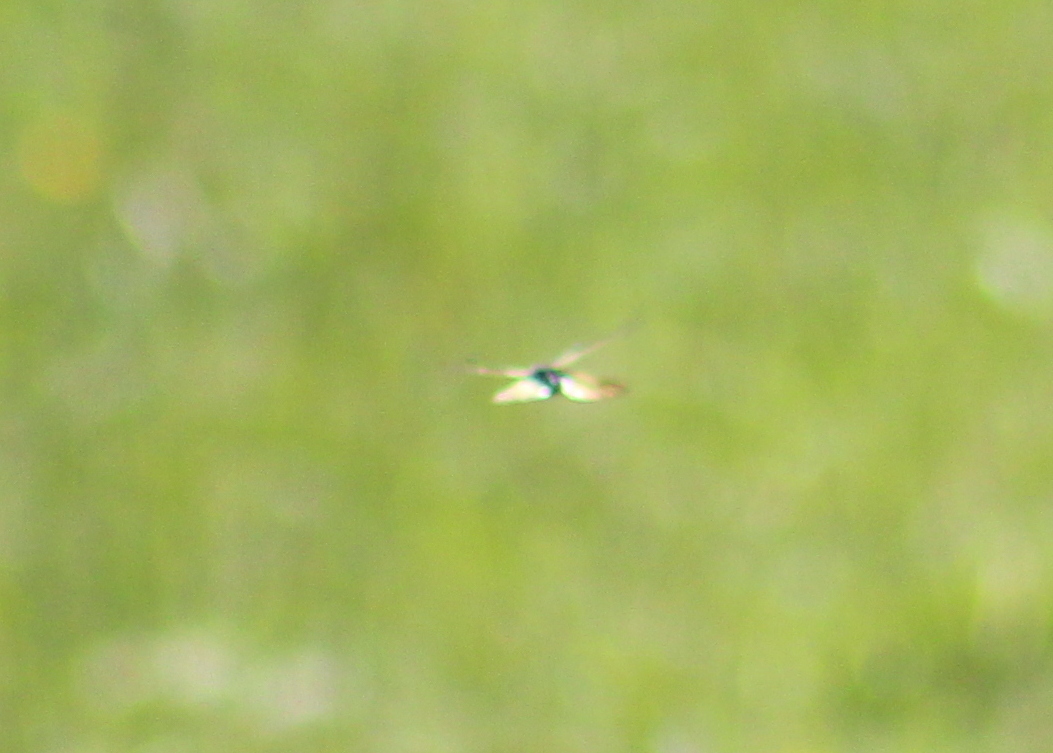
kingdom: Animalia
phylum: Arthropoda
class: Insecta
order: Neuroptera
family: Ascalaphidae
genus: Libelloides
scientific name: Libelloides coccajus
